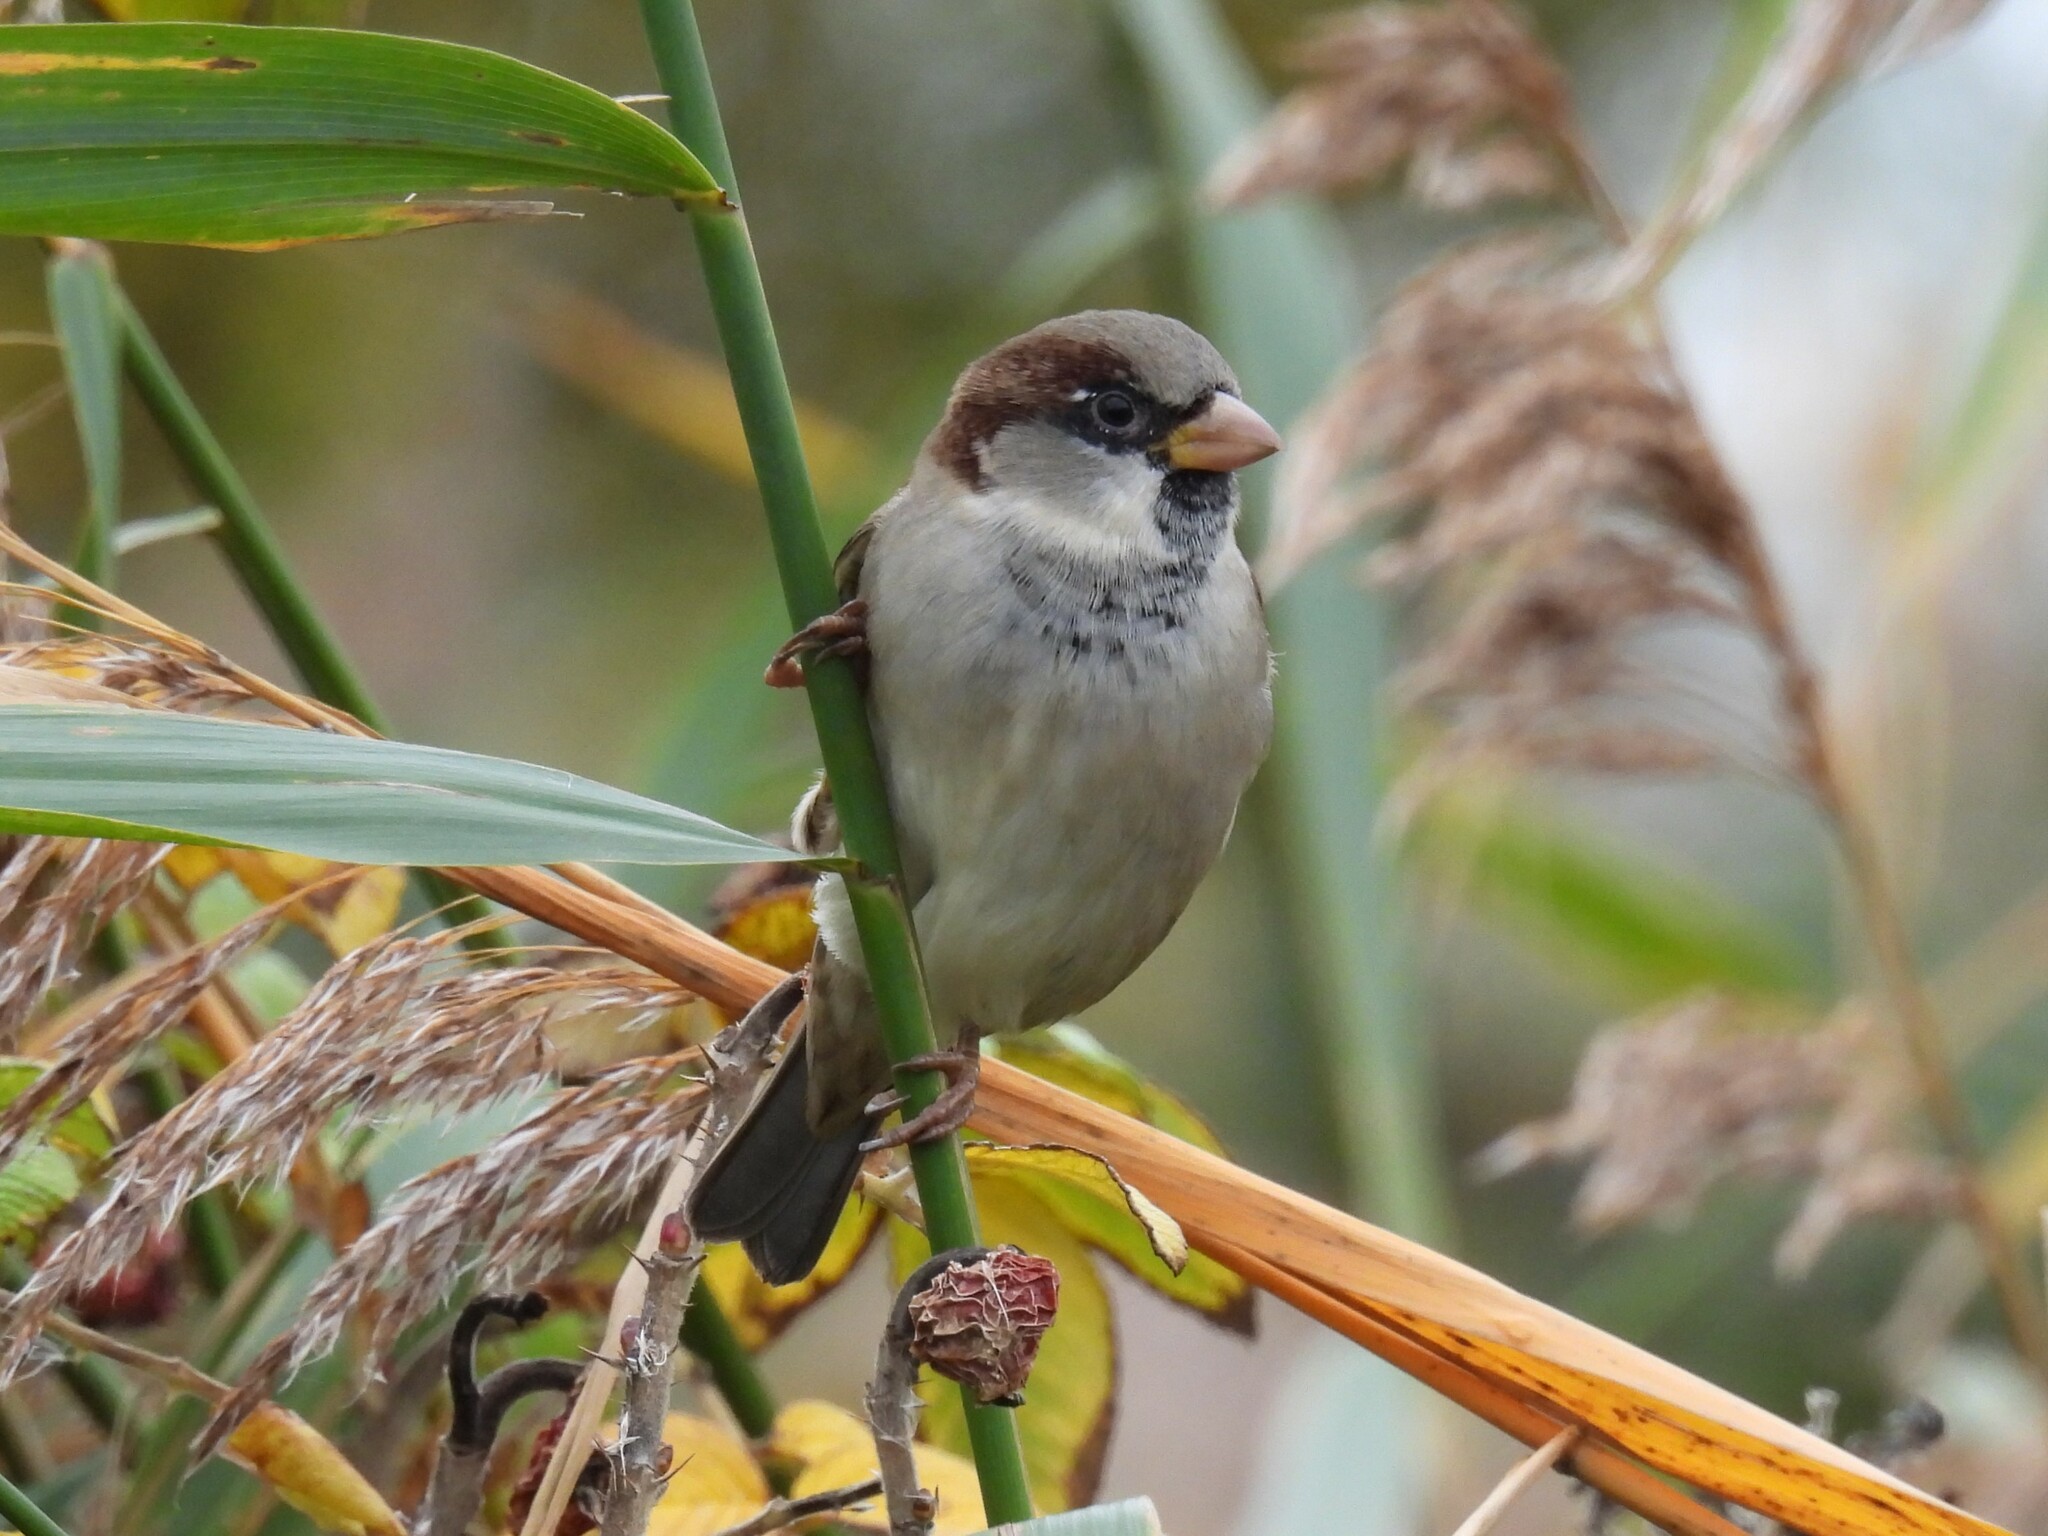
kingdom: Animalia
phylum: Chordata
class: Aves
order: Passeriformes
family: Passeridae
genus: Passer
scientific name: Passer domesticus
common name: House sparrow
